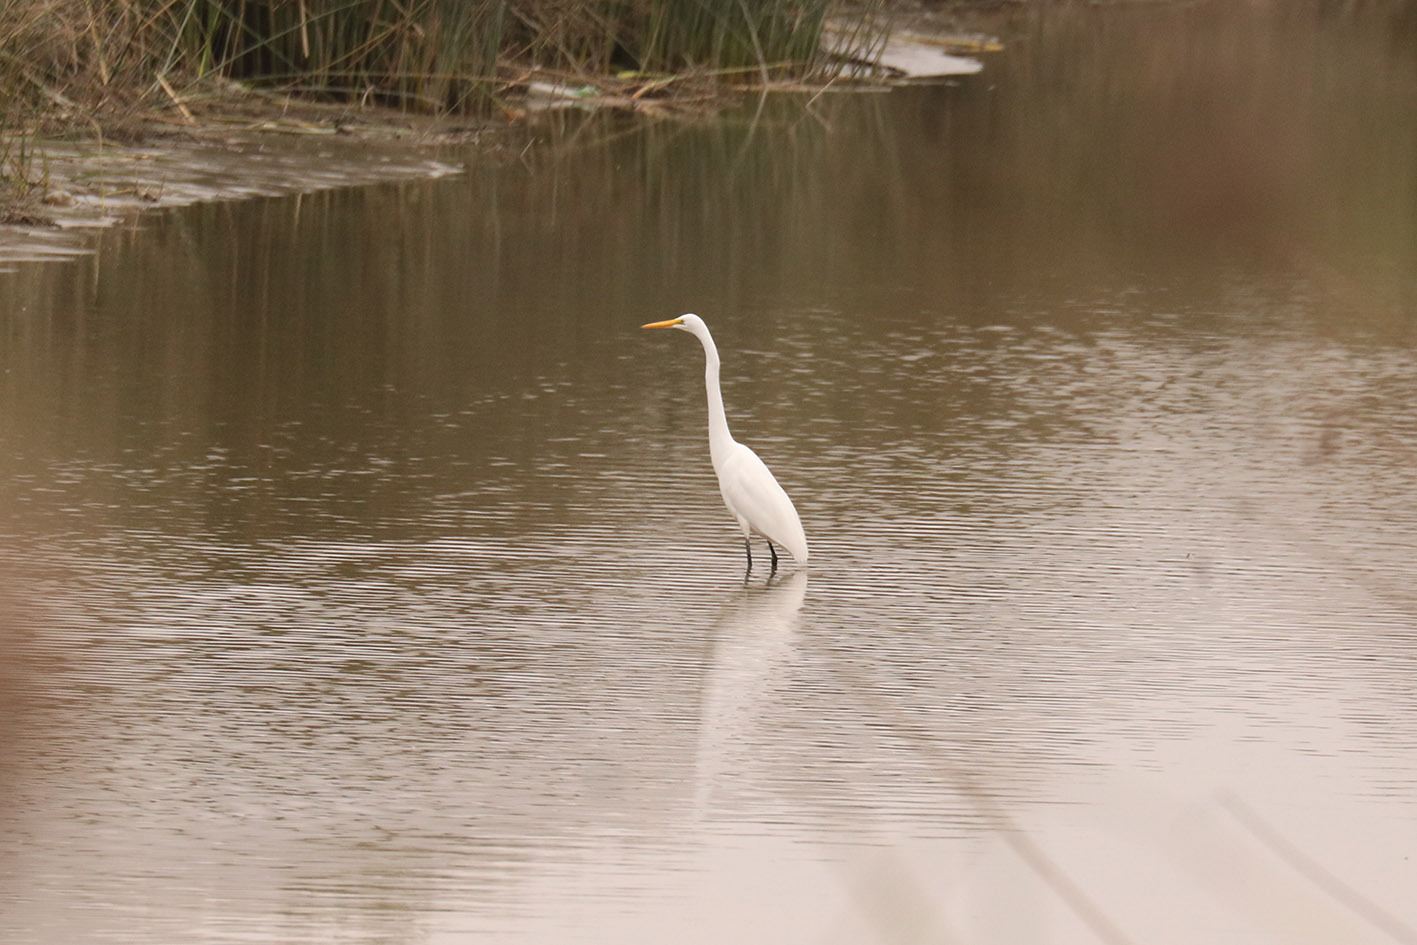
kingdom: Animalia
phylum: Chordata
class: Aves
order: Pelecaniformes
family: Ardeidae
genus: Ardea
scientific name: Ardea alba
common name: Great egret
